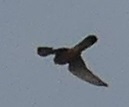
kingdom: Animalia
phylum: Chordata
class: Aves
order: Falconiformes
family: Falconidae
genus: Falco
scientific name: Falco tinnunculus
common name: Common kestrel
